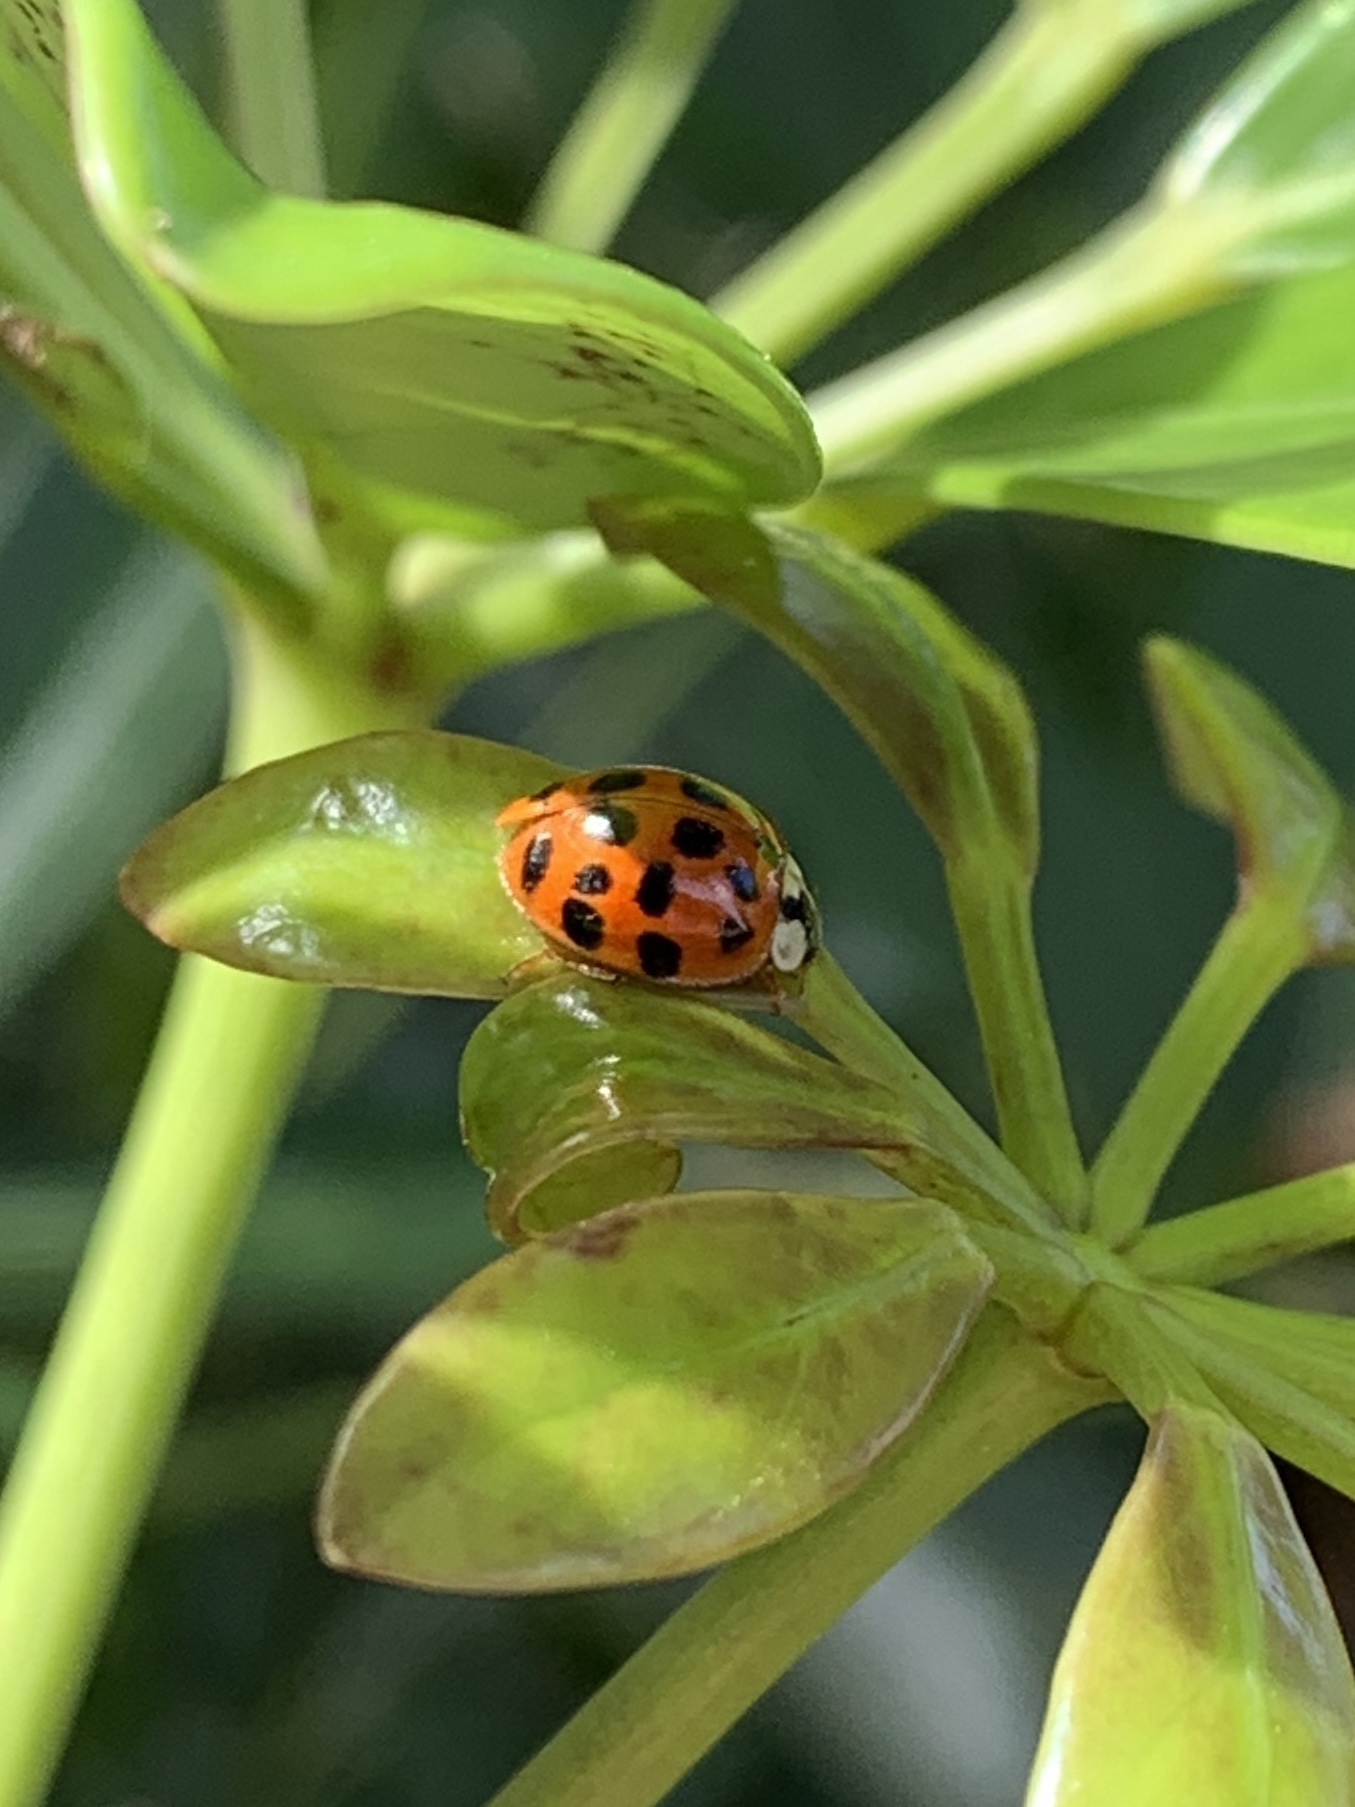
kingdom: Animalia
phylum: Arthropoda
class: Insecta
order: Coleoptera
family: Coccinellidae
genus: Harmonia
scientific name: Harmonia axyridis
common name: Harlequin ladybird
